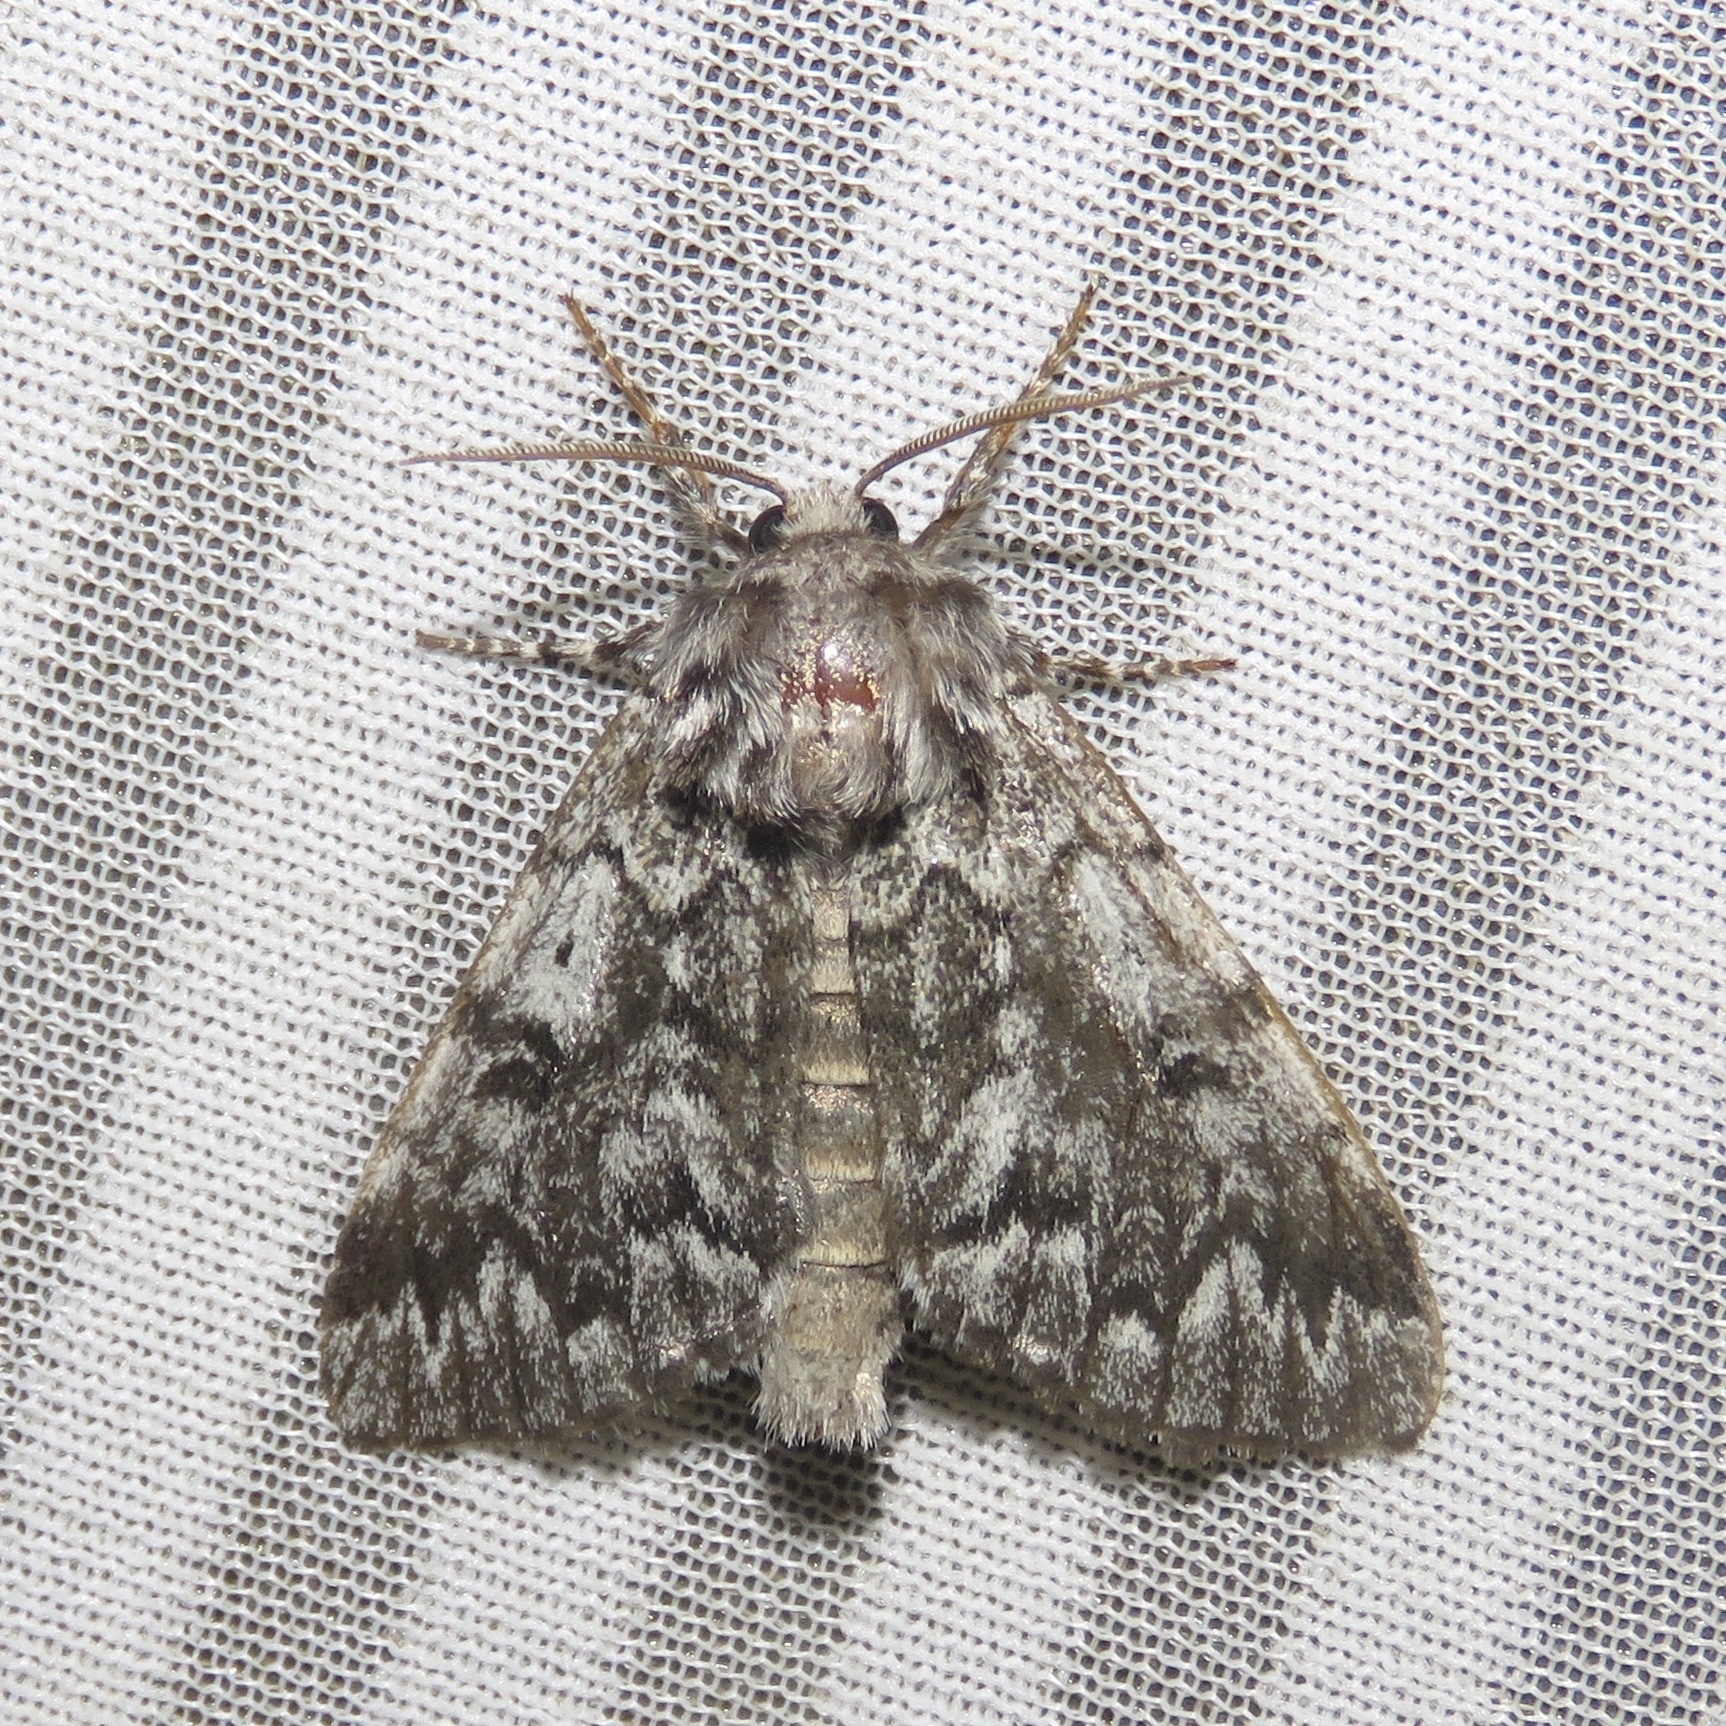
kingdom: Animalia
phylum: Arthropoda
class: Insecta
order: Lepidoptera
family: Noctuidae
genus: Panthea
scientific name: Panthea acronyctoides
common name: Black zigzag moth
